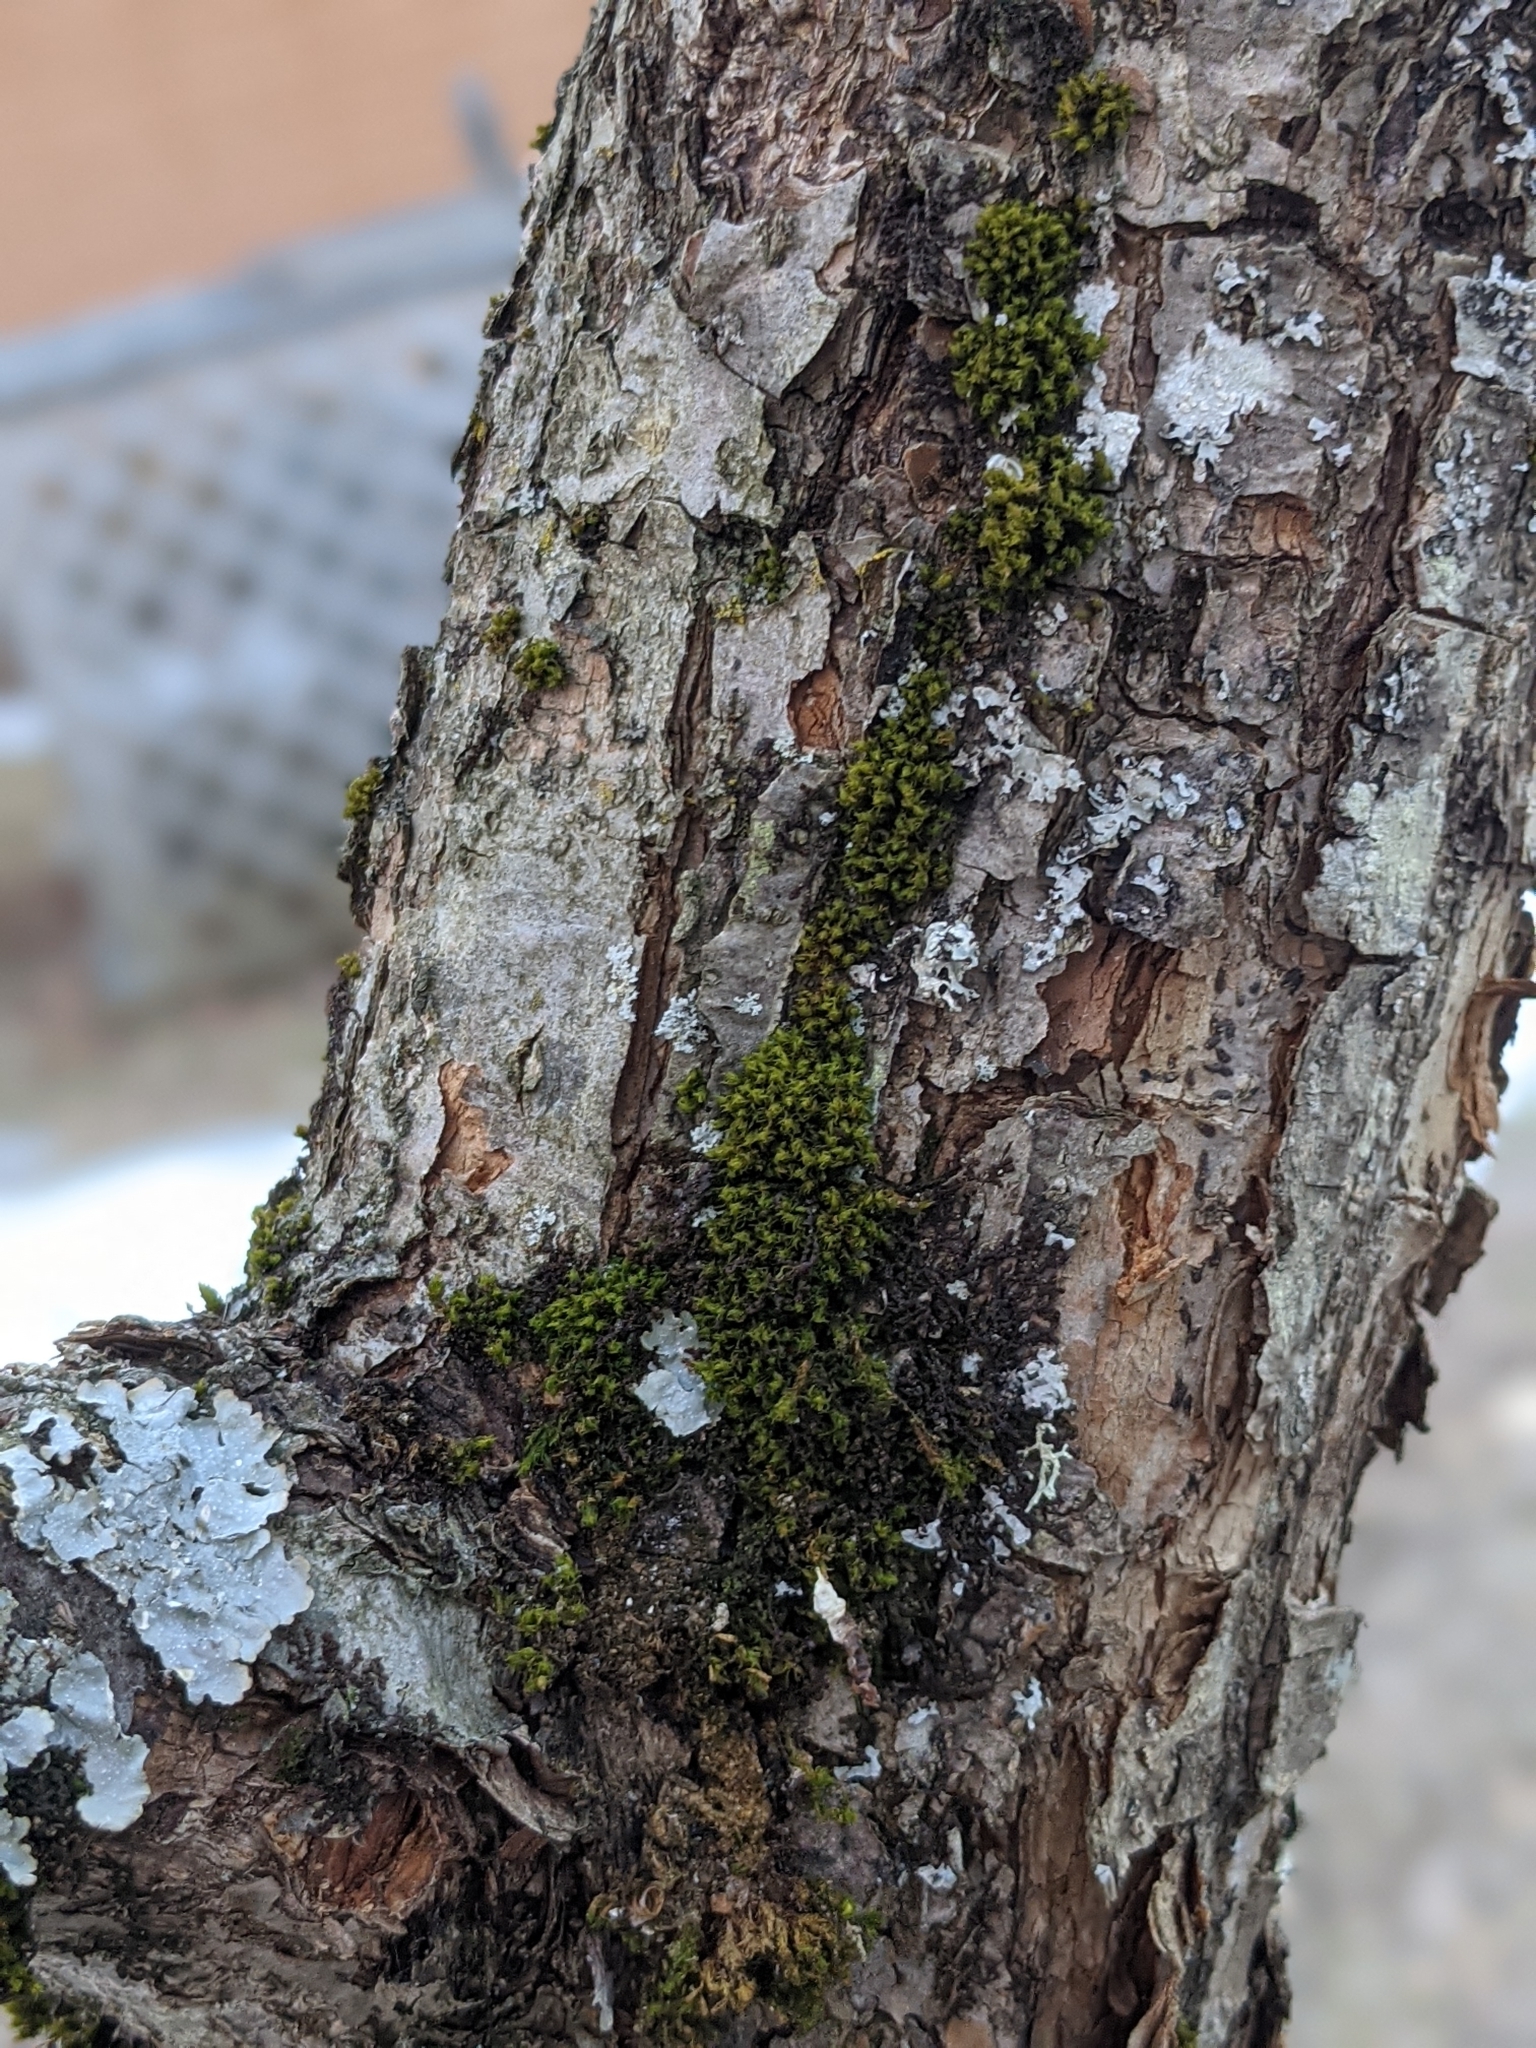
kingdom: Plantae
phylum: Bryophyta
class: Bryopsida
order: Orthotrichales
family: Orthotrichaceae
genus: Ulota
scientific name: Ulota crispa
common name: Crisped pincushion moss
